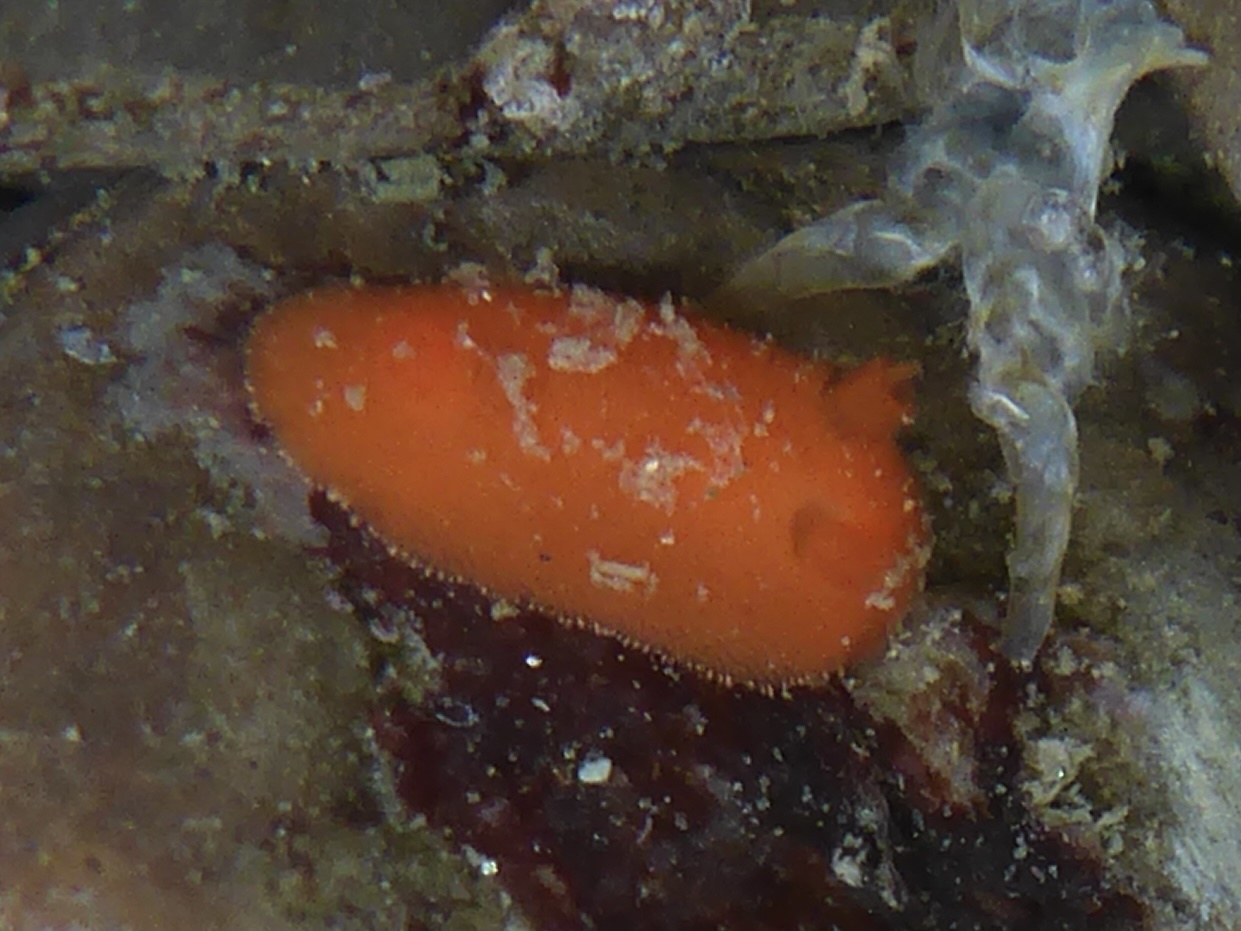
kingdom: Animalia
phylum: Mollusca
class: Gastropoda
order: Nudibranchia
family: Discodorididae
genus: Rostanga
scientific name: Rostanga pulchra
